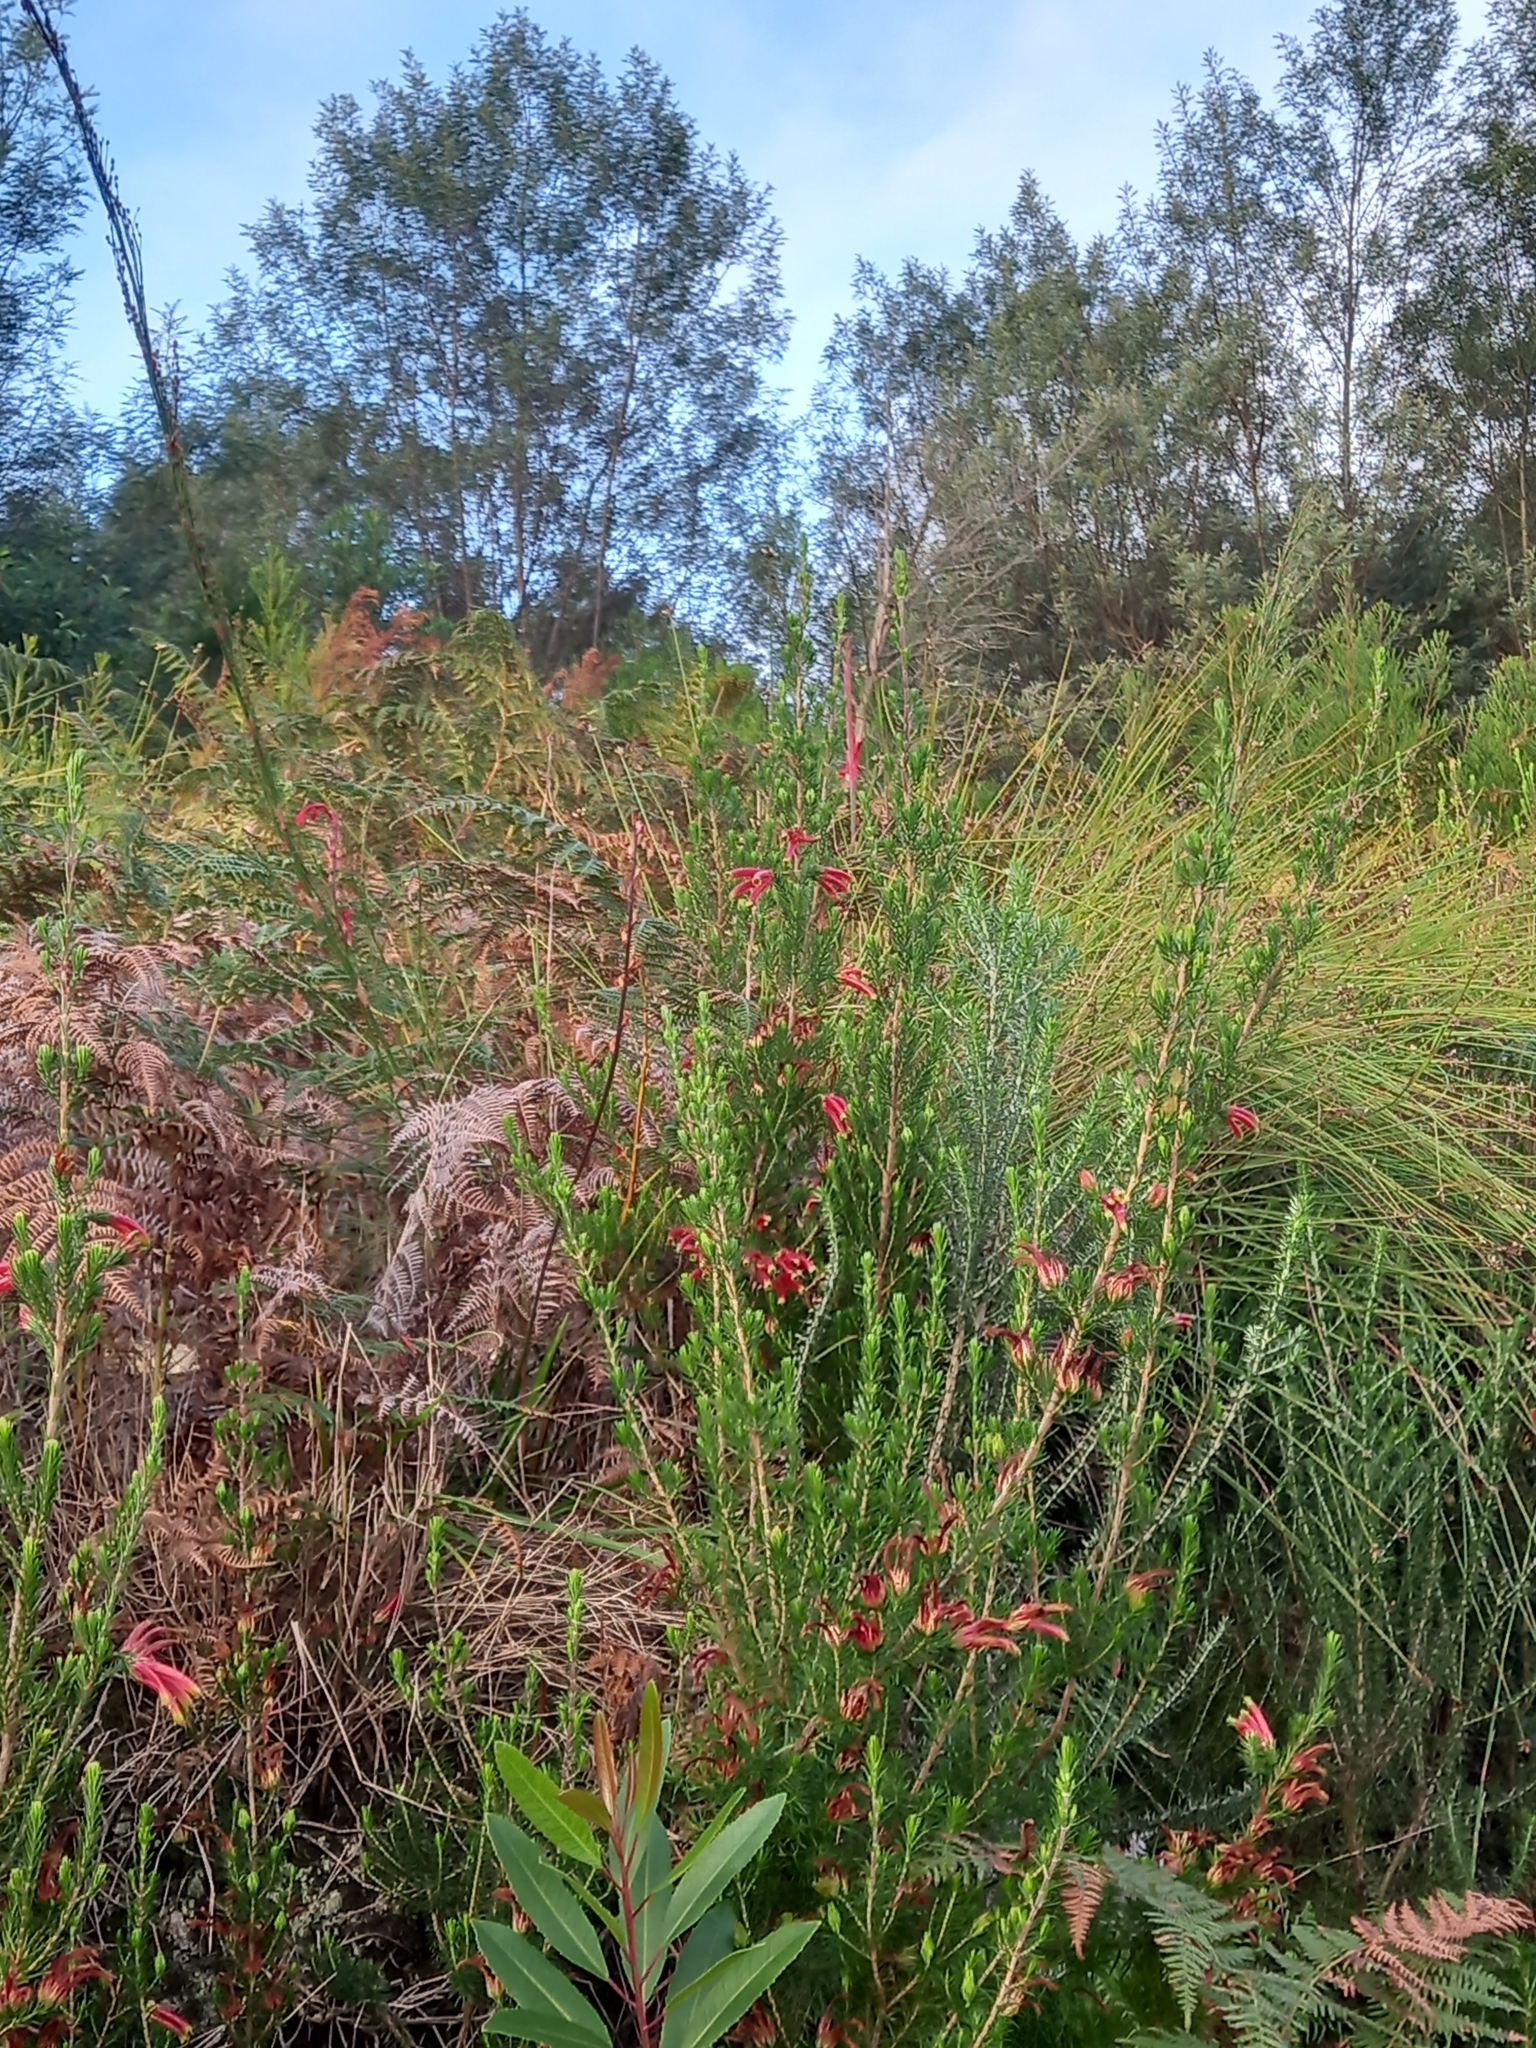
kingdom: Plantae
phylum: Tracheophyta
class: Magnoliopsida
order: Ericales
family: Ericaceae
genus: Erica
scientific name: Erica unicolor
